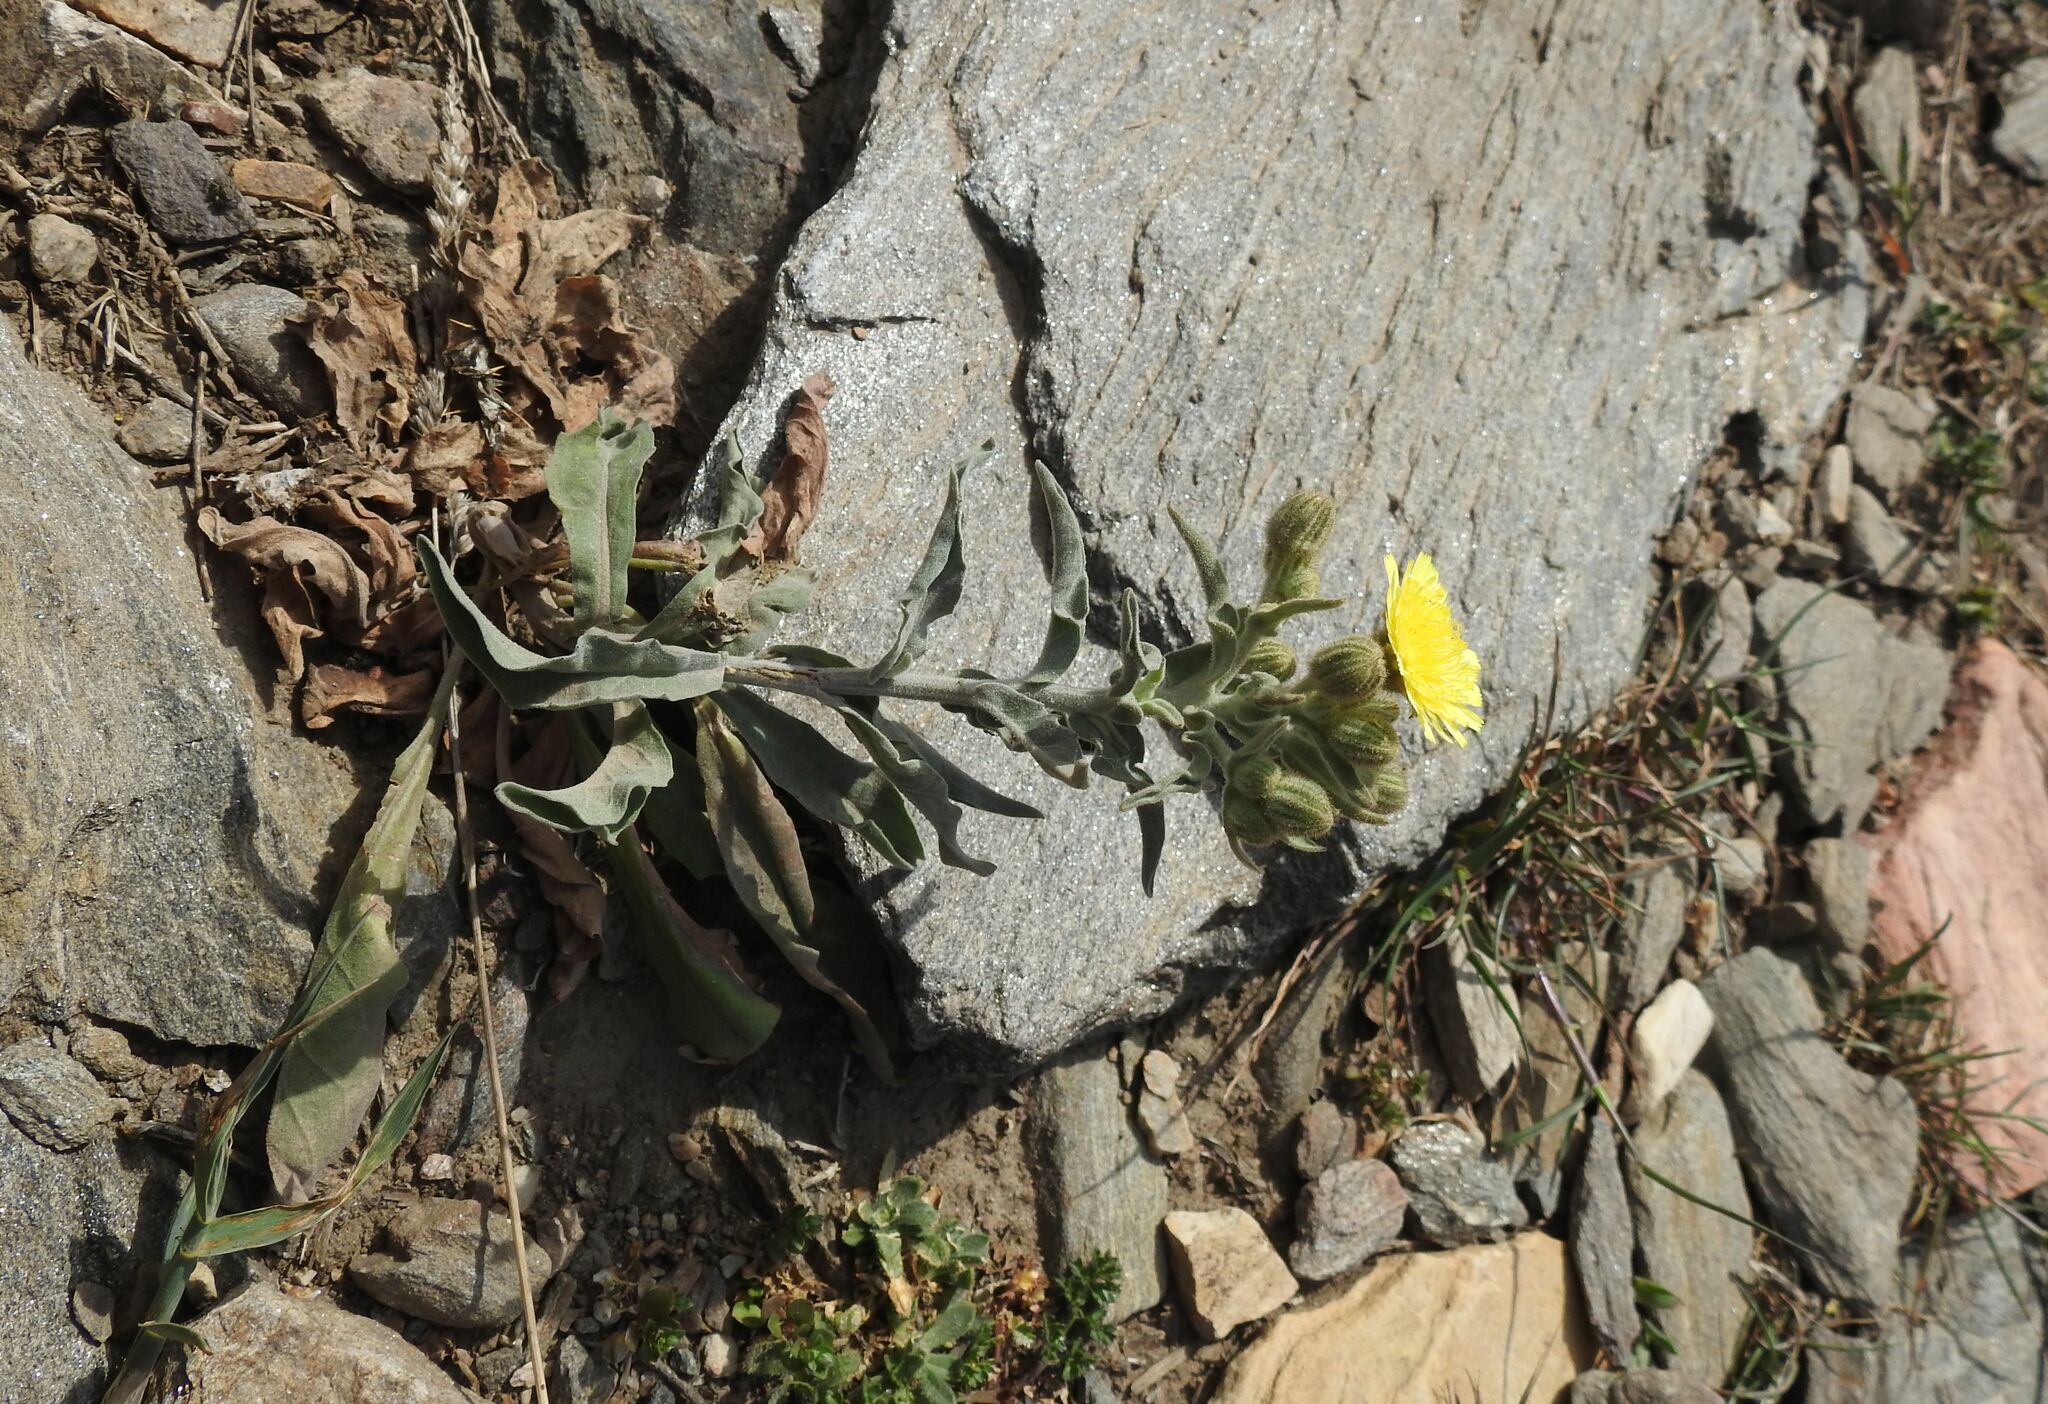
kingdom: Plantae
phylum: Tracheophyta
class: Magnoliopsida
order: Asterales
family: Asteraceae
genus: Andryala
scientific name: Andryala integrifolia
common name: Common andryala
